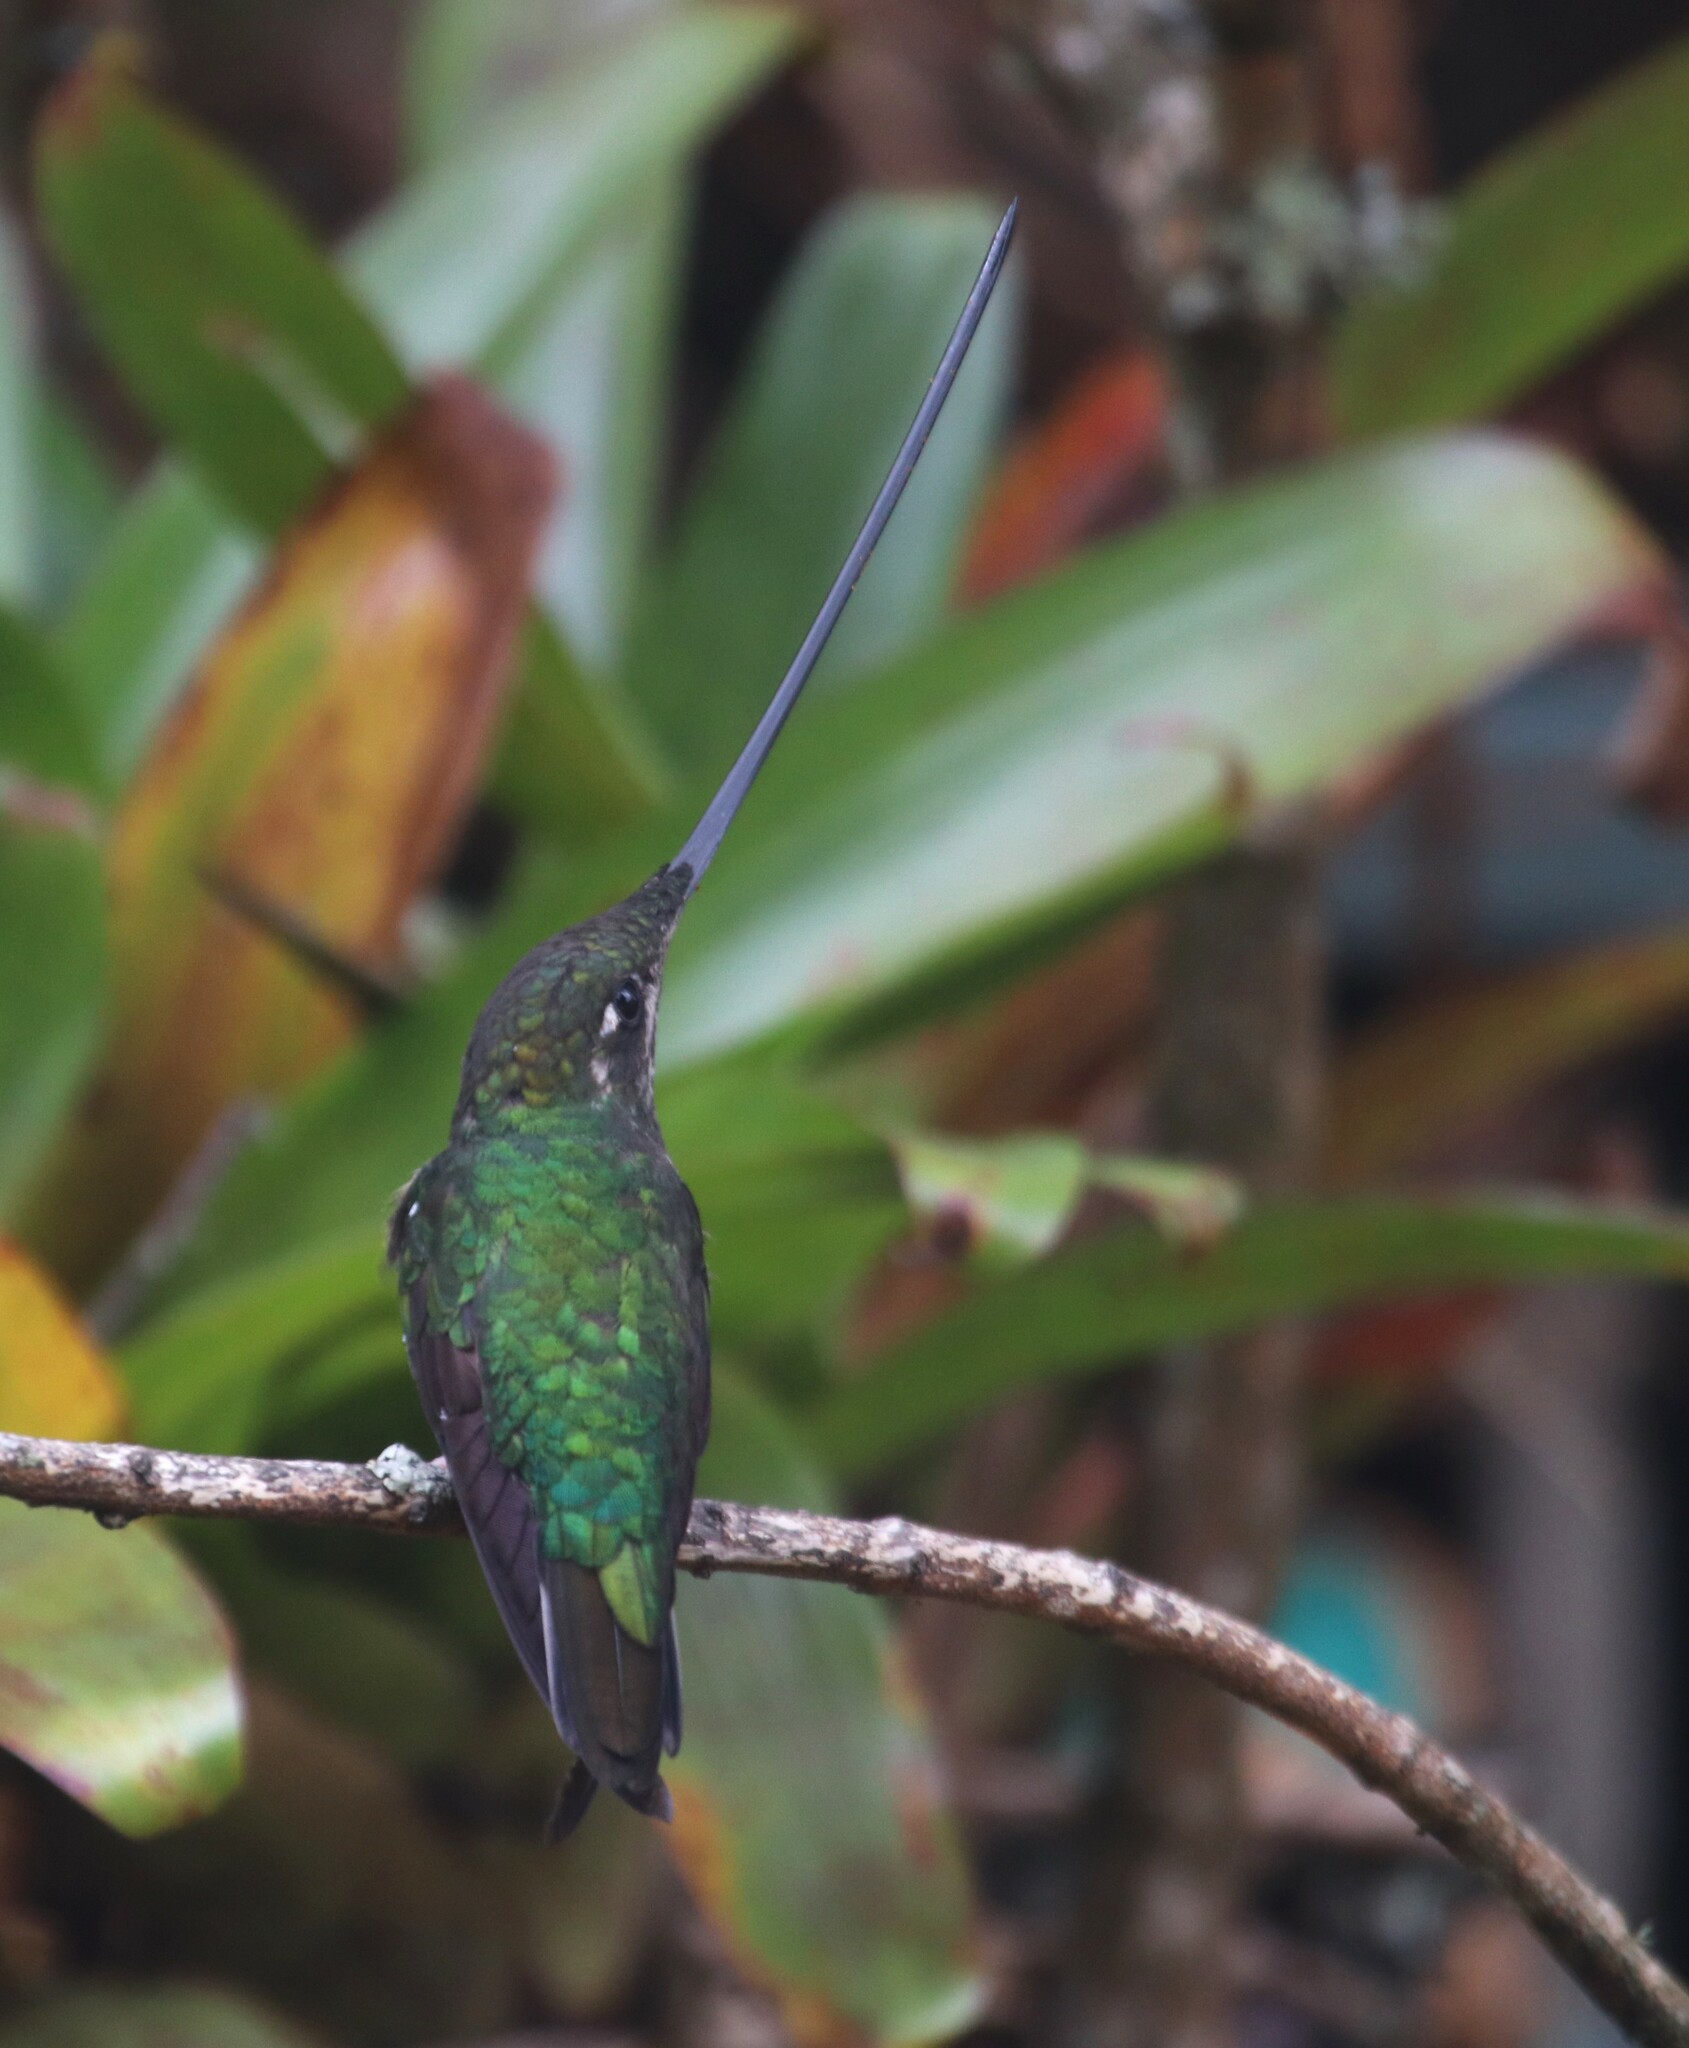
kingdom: Animalia
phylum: Chordata
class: Aves
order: Apodiformes
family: Trochilidae
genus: Ensifera
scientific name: Ensifera ensifera
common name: Sword-billed hummingbird
